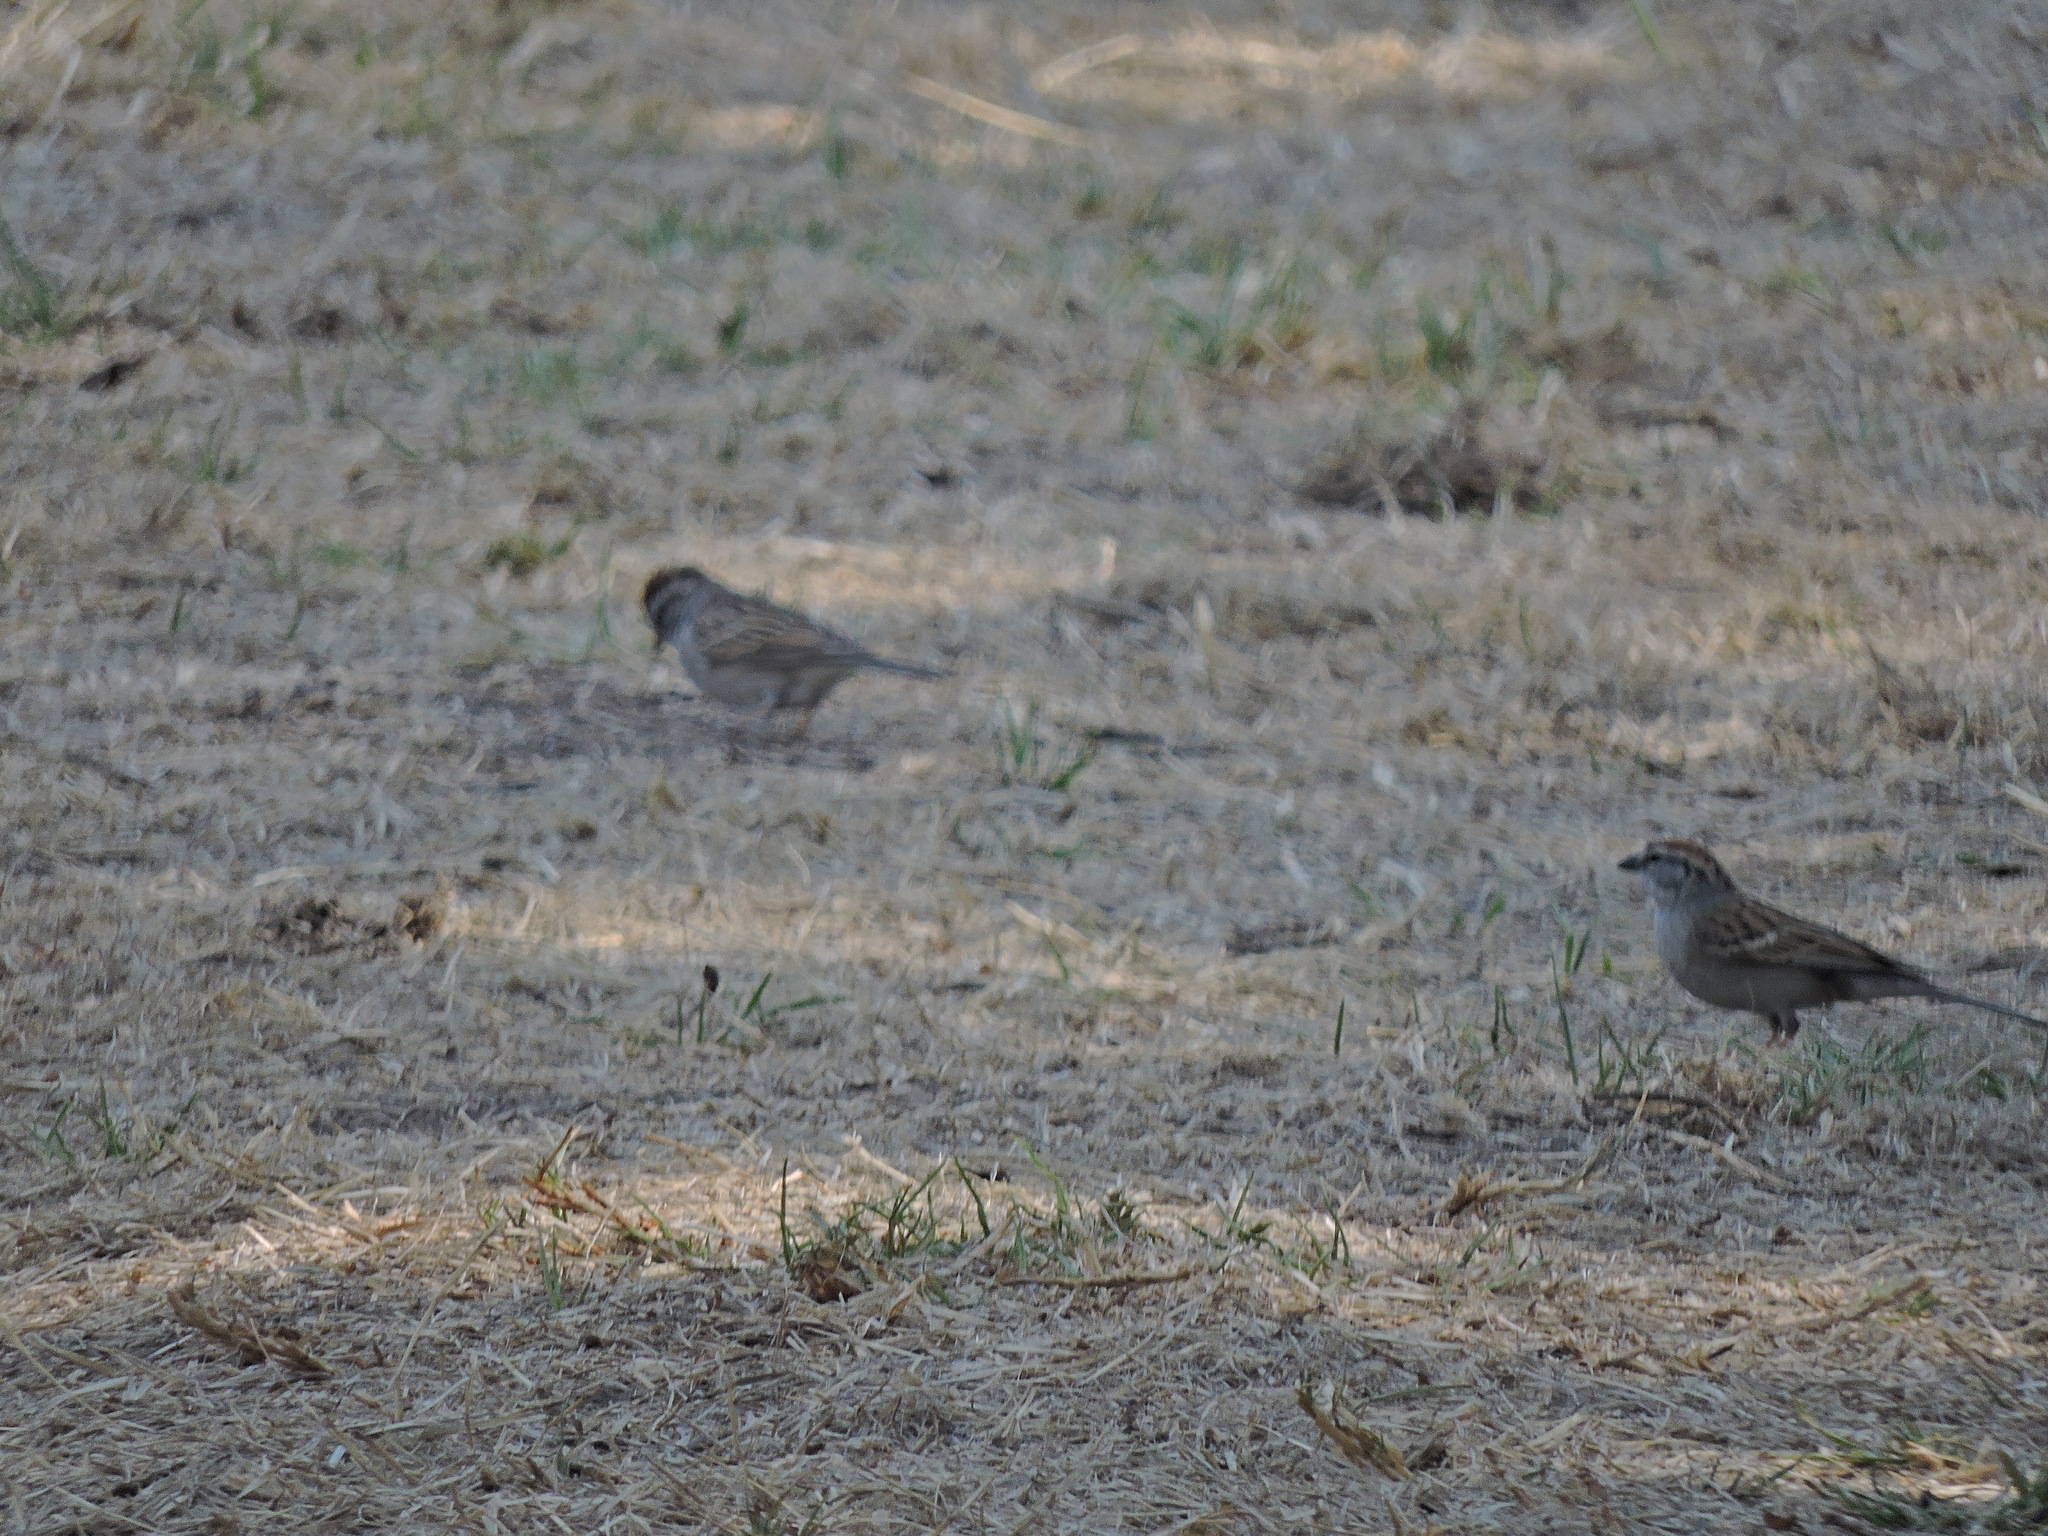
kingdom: Animalia
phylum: Chordata
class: Aves
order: Passeriformes
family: Passerellidae
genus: Spizella
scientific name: Spizella passerina
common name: Chipping sparrow
